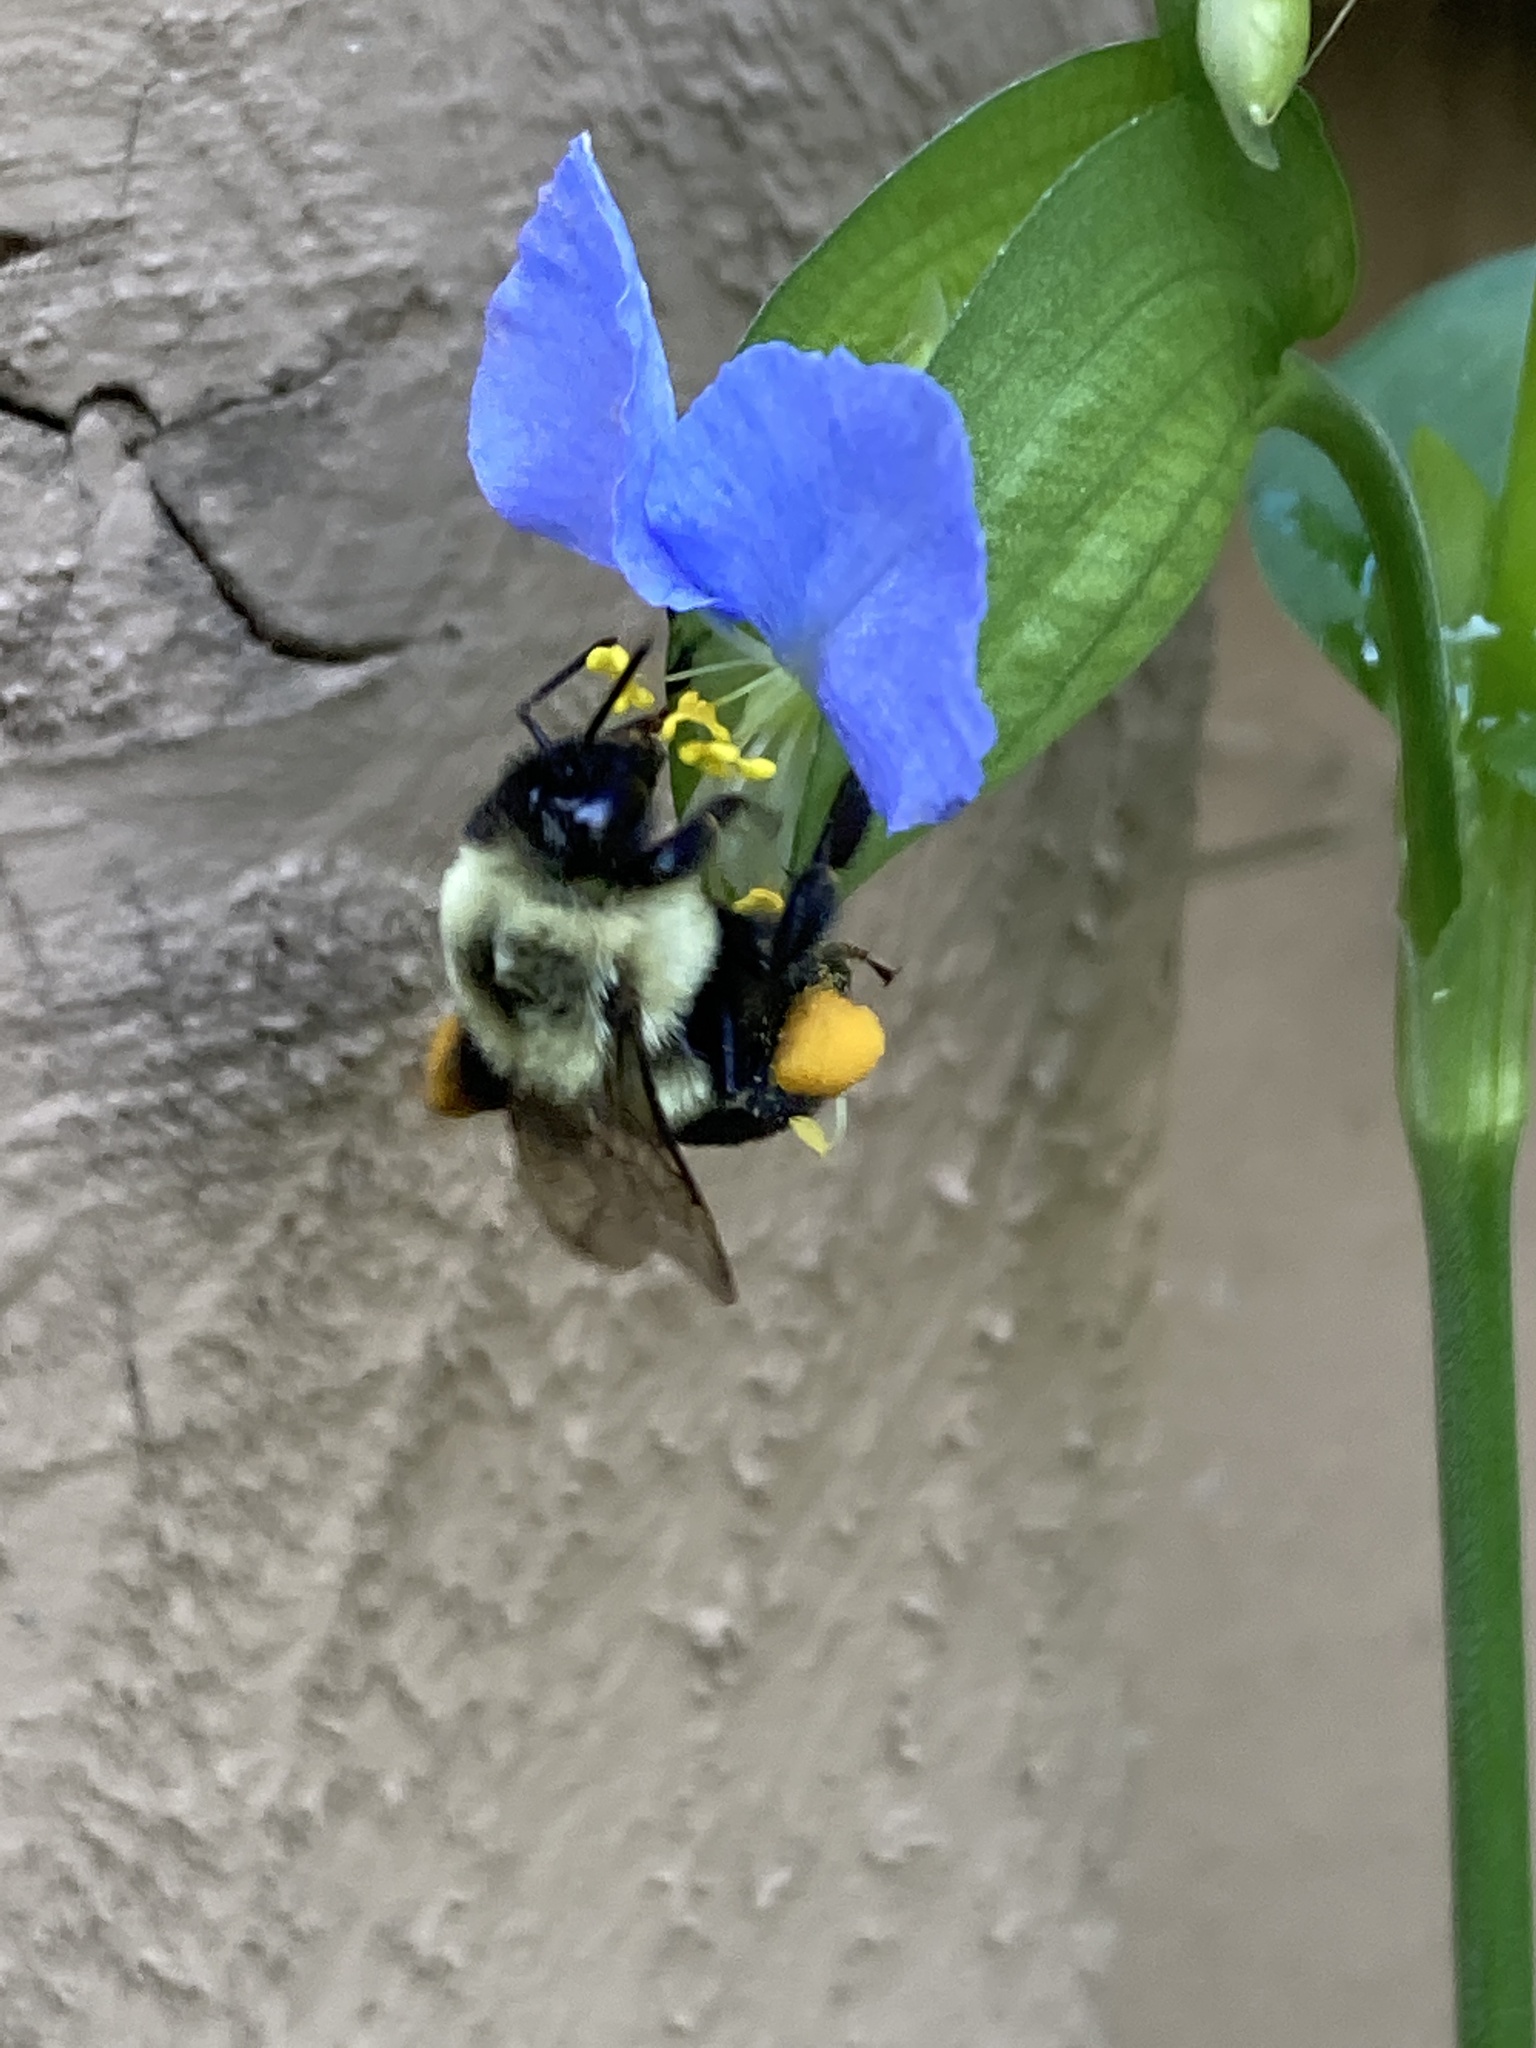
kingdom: Animalia
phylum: Arthropoda
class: Insecta
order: Hymenoptera
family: Apidae
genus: Bombus
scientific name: Bombus impatiens
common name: Common eastern bumble bee
